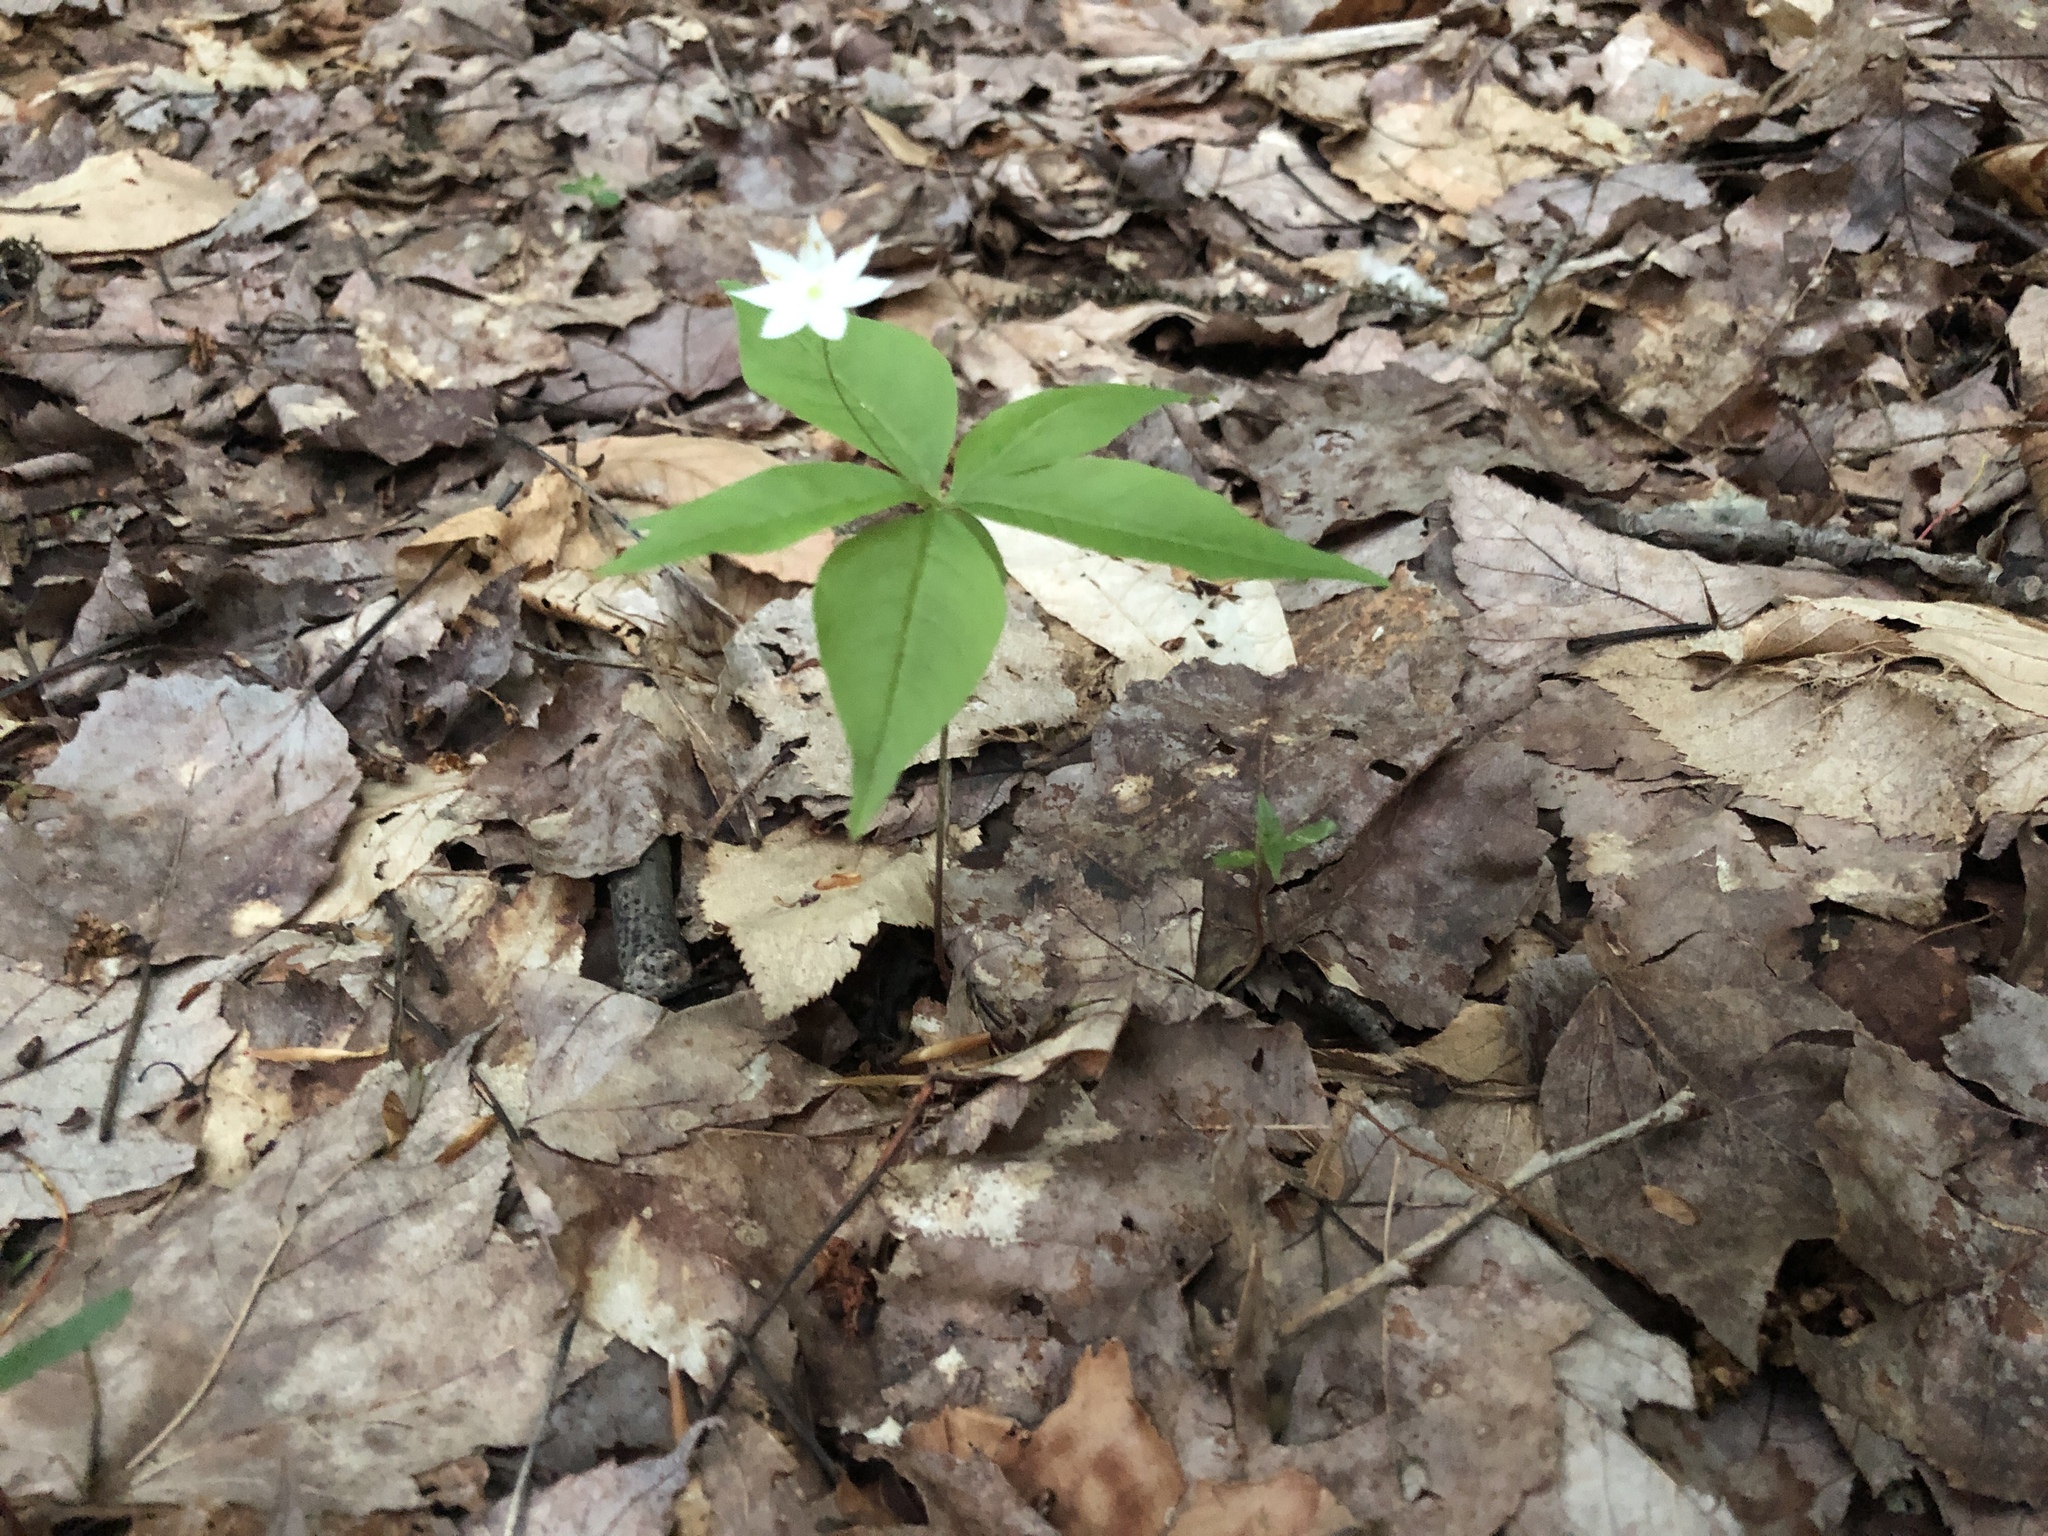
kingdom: Plantae
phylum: Tracheophyta
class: Magnoliopsida
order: Ericales
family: Primulaceae
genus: Lysimachia
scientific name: Lysimachia borealis
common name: American starflower
